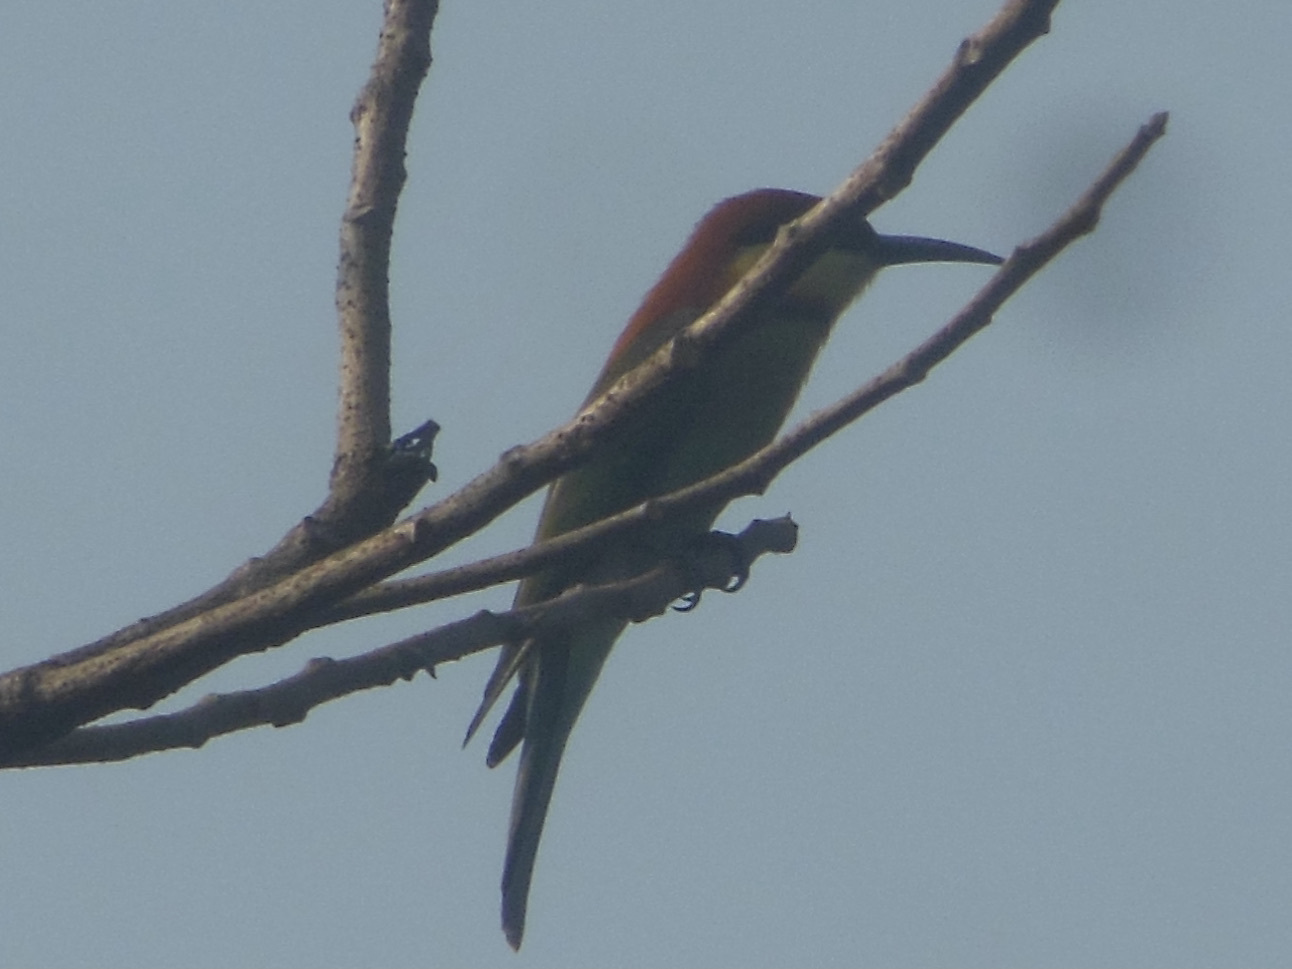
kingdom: Animalia
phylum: Chordata
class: Aves
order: Coraciiformes
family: Meropidae
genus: Merops
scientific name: Merops leschenaulti
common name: Chestnut-headed bee-eater
